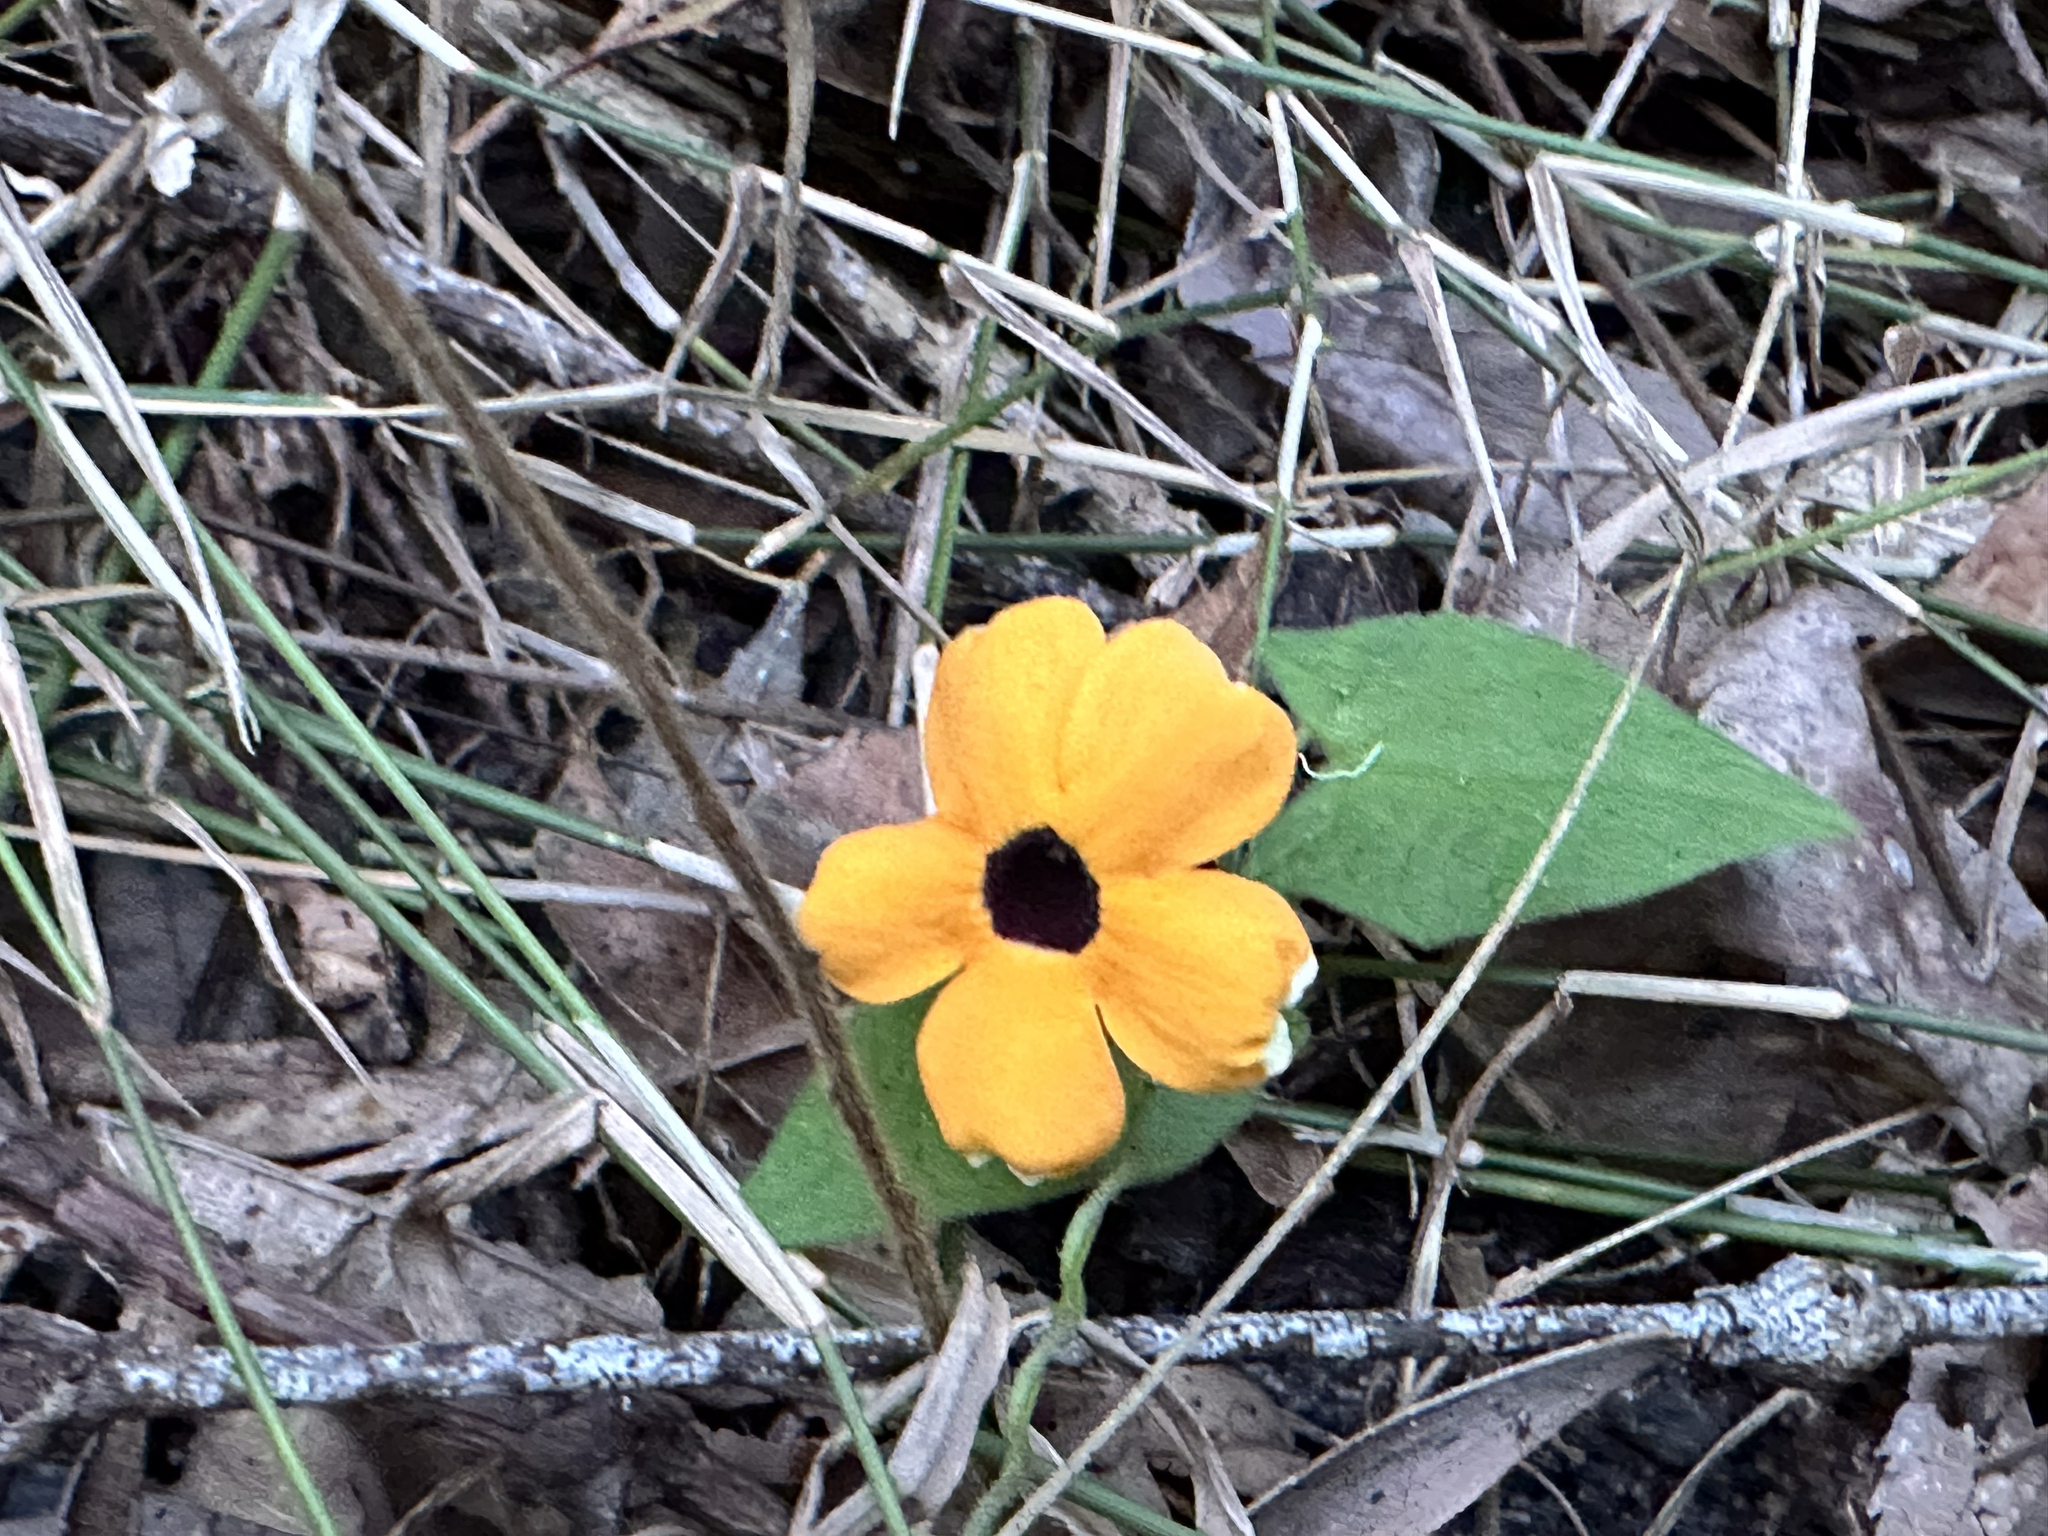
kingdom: Plantae
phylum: Tracheophyta
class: Magnoliopsida
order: Lamiales
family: Acanthaceae
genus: Thunbergia
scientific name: Thunbergia alata
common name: Blackeyed susan vine
